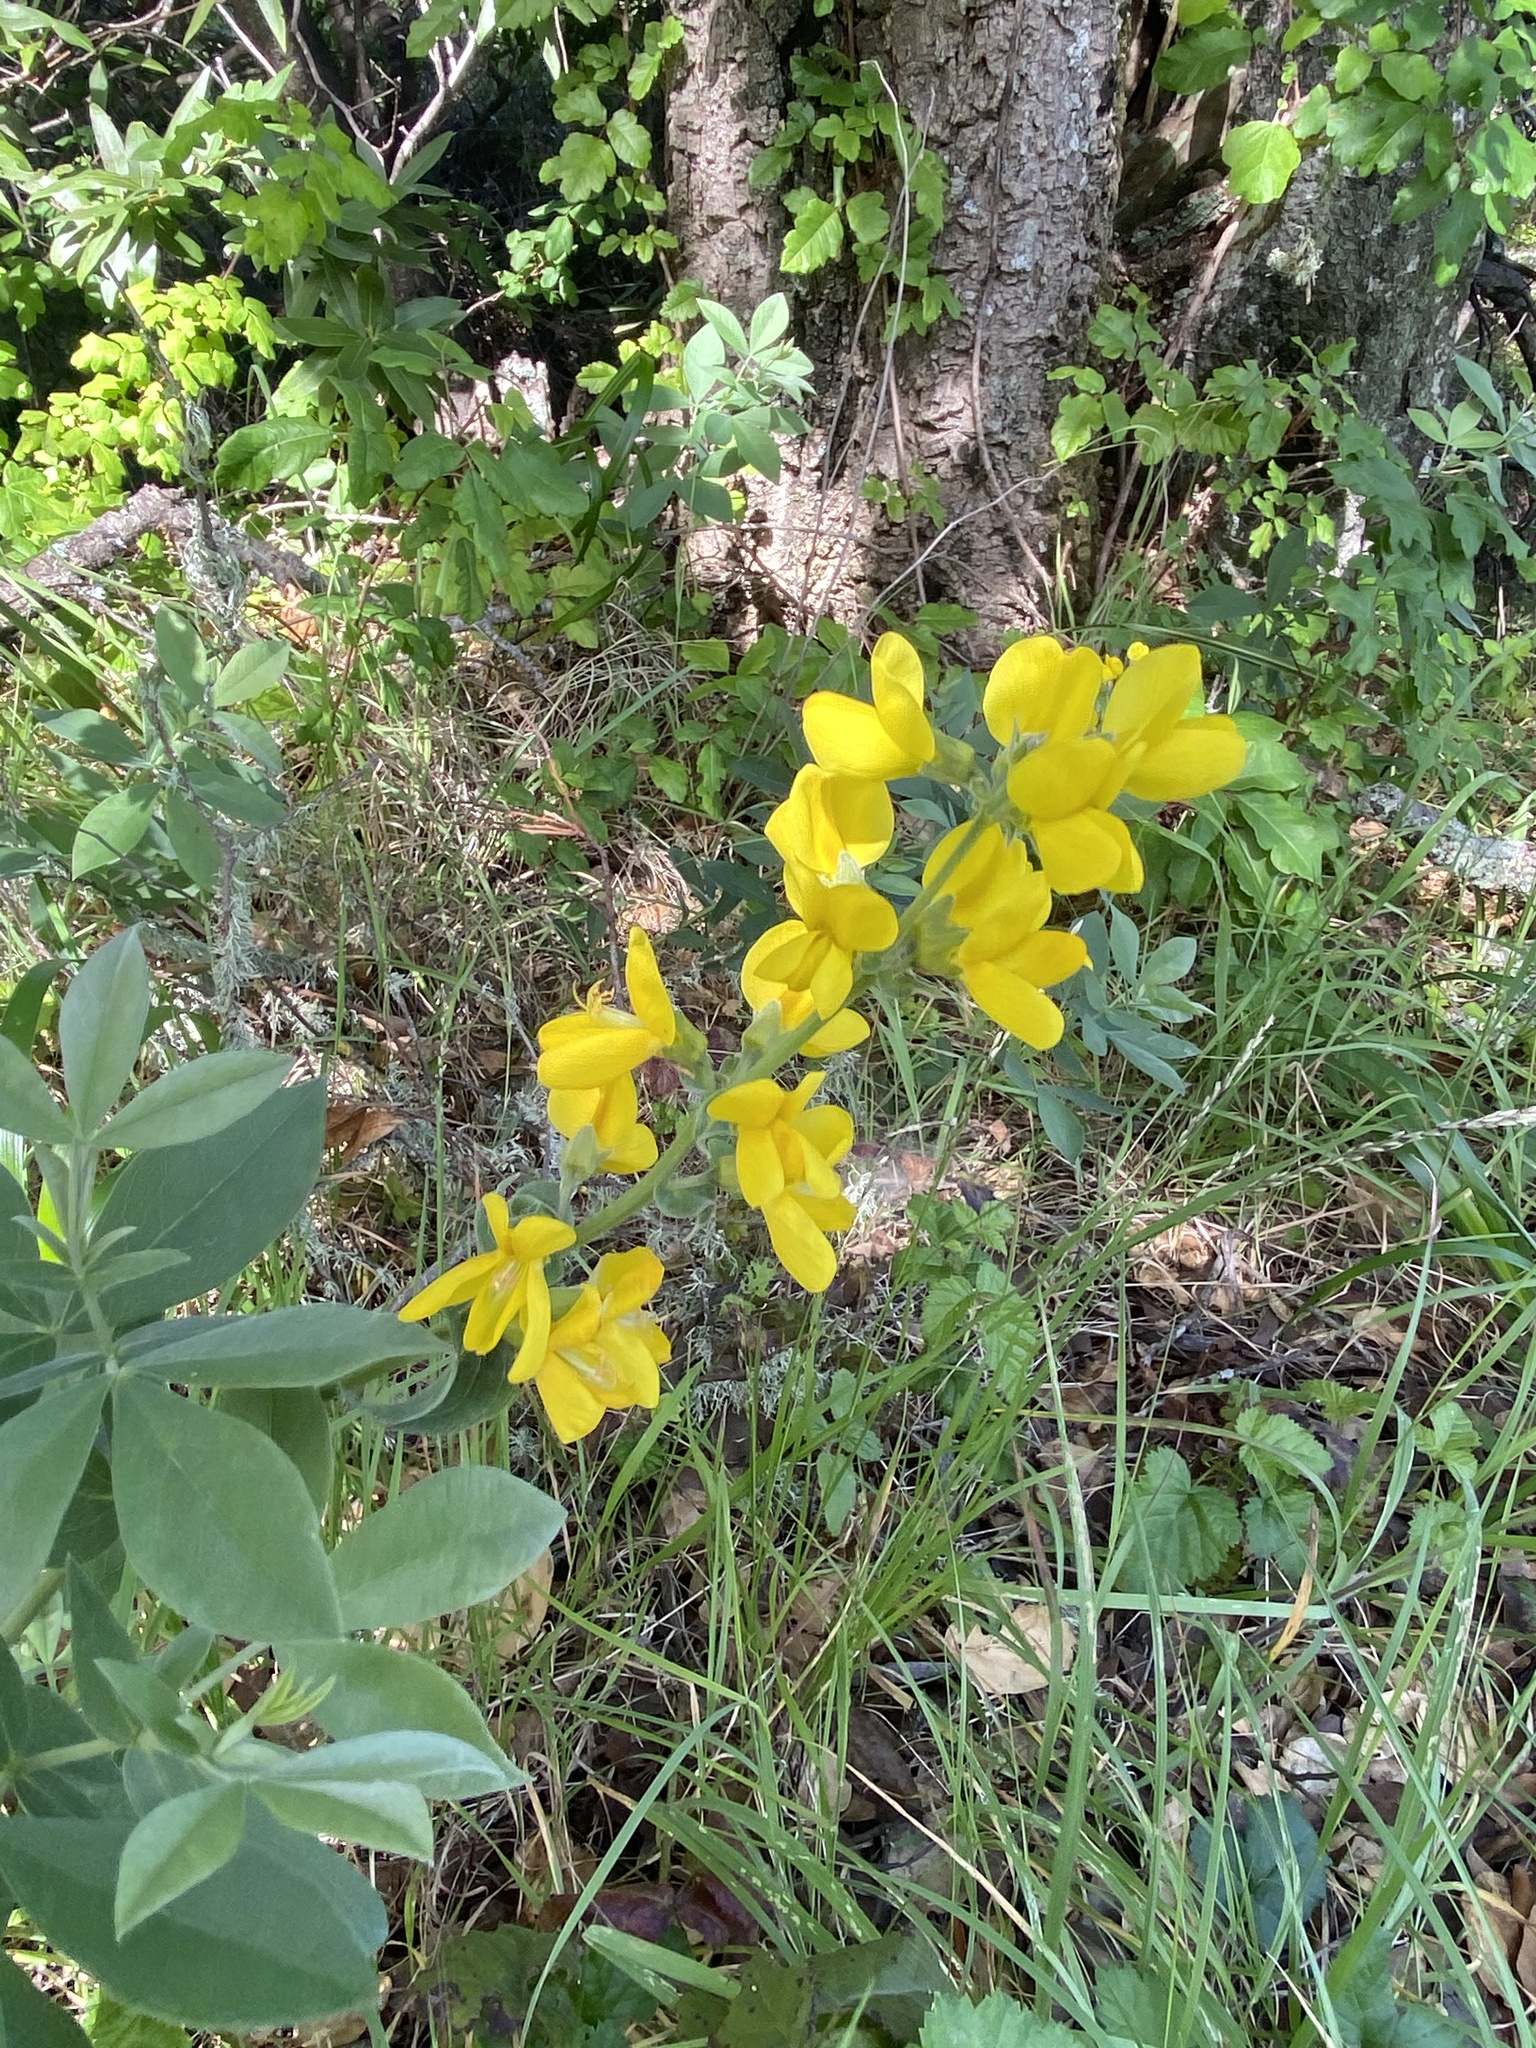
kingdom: Plantae
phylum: Tracheophyta
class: Magnoliopsida
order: Fabales
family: Fabaceae
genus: Thermopsis
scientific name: Thermopsis californica
